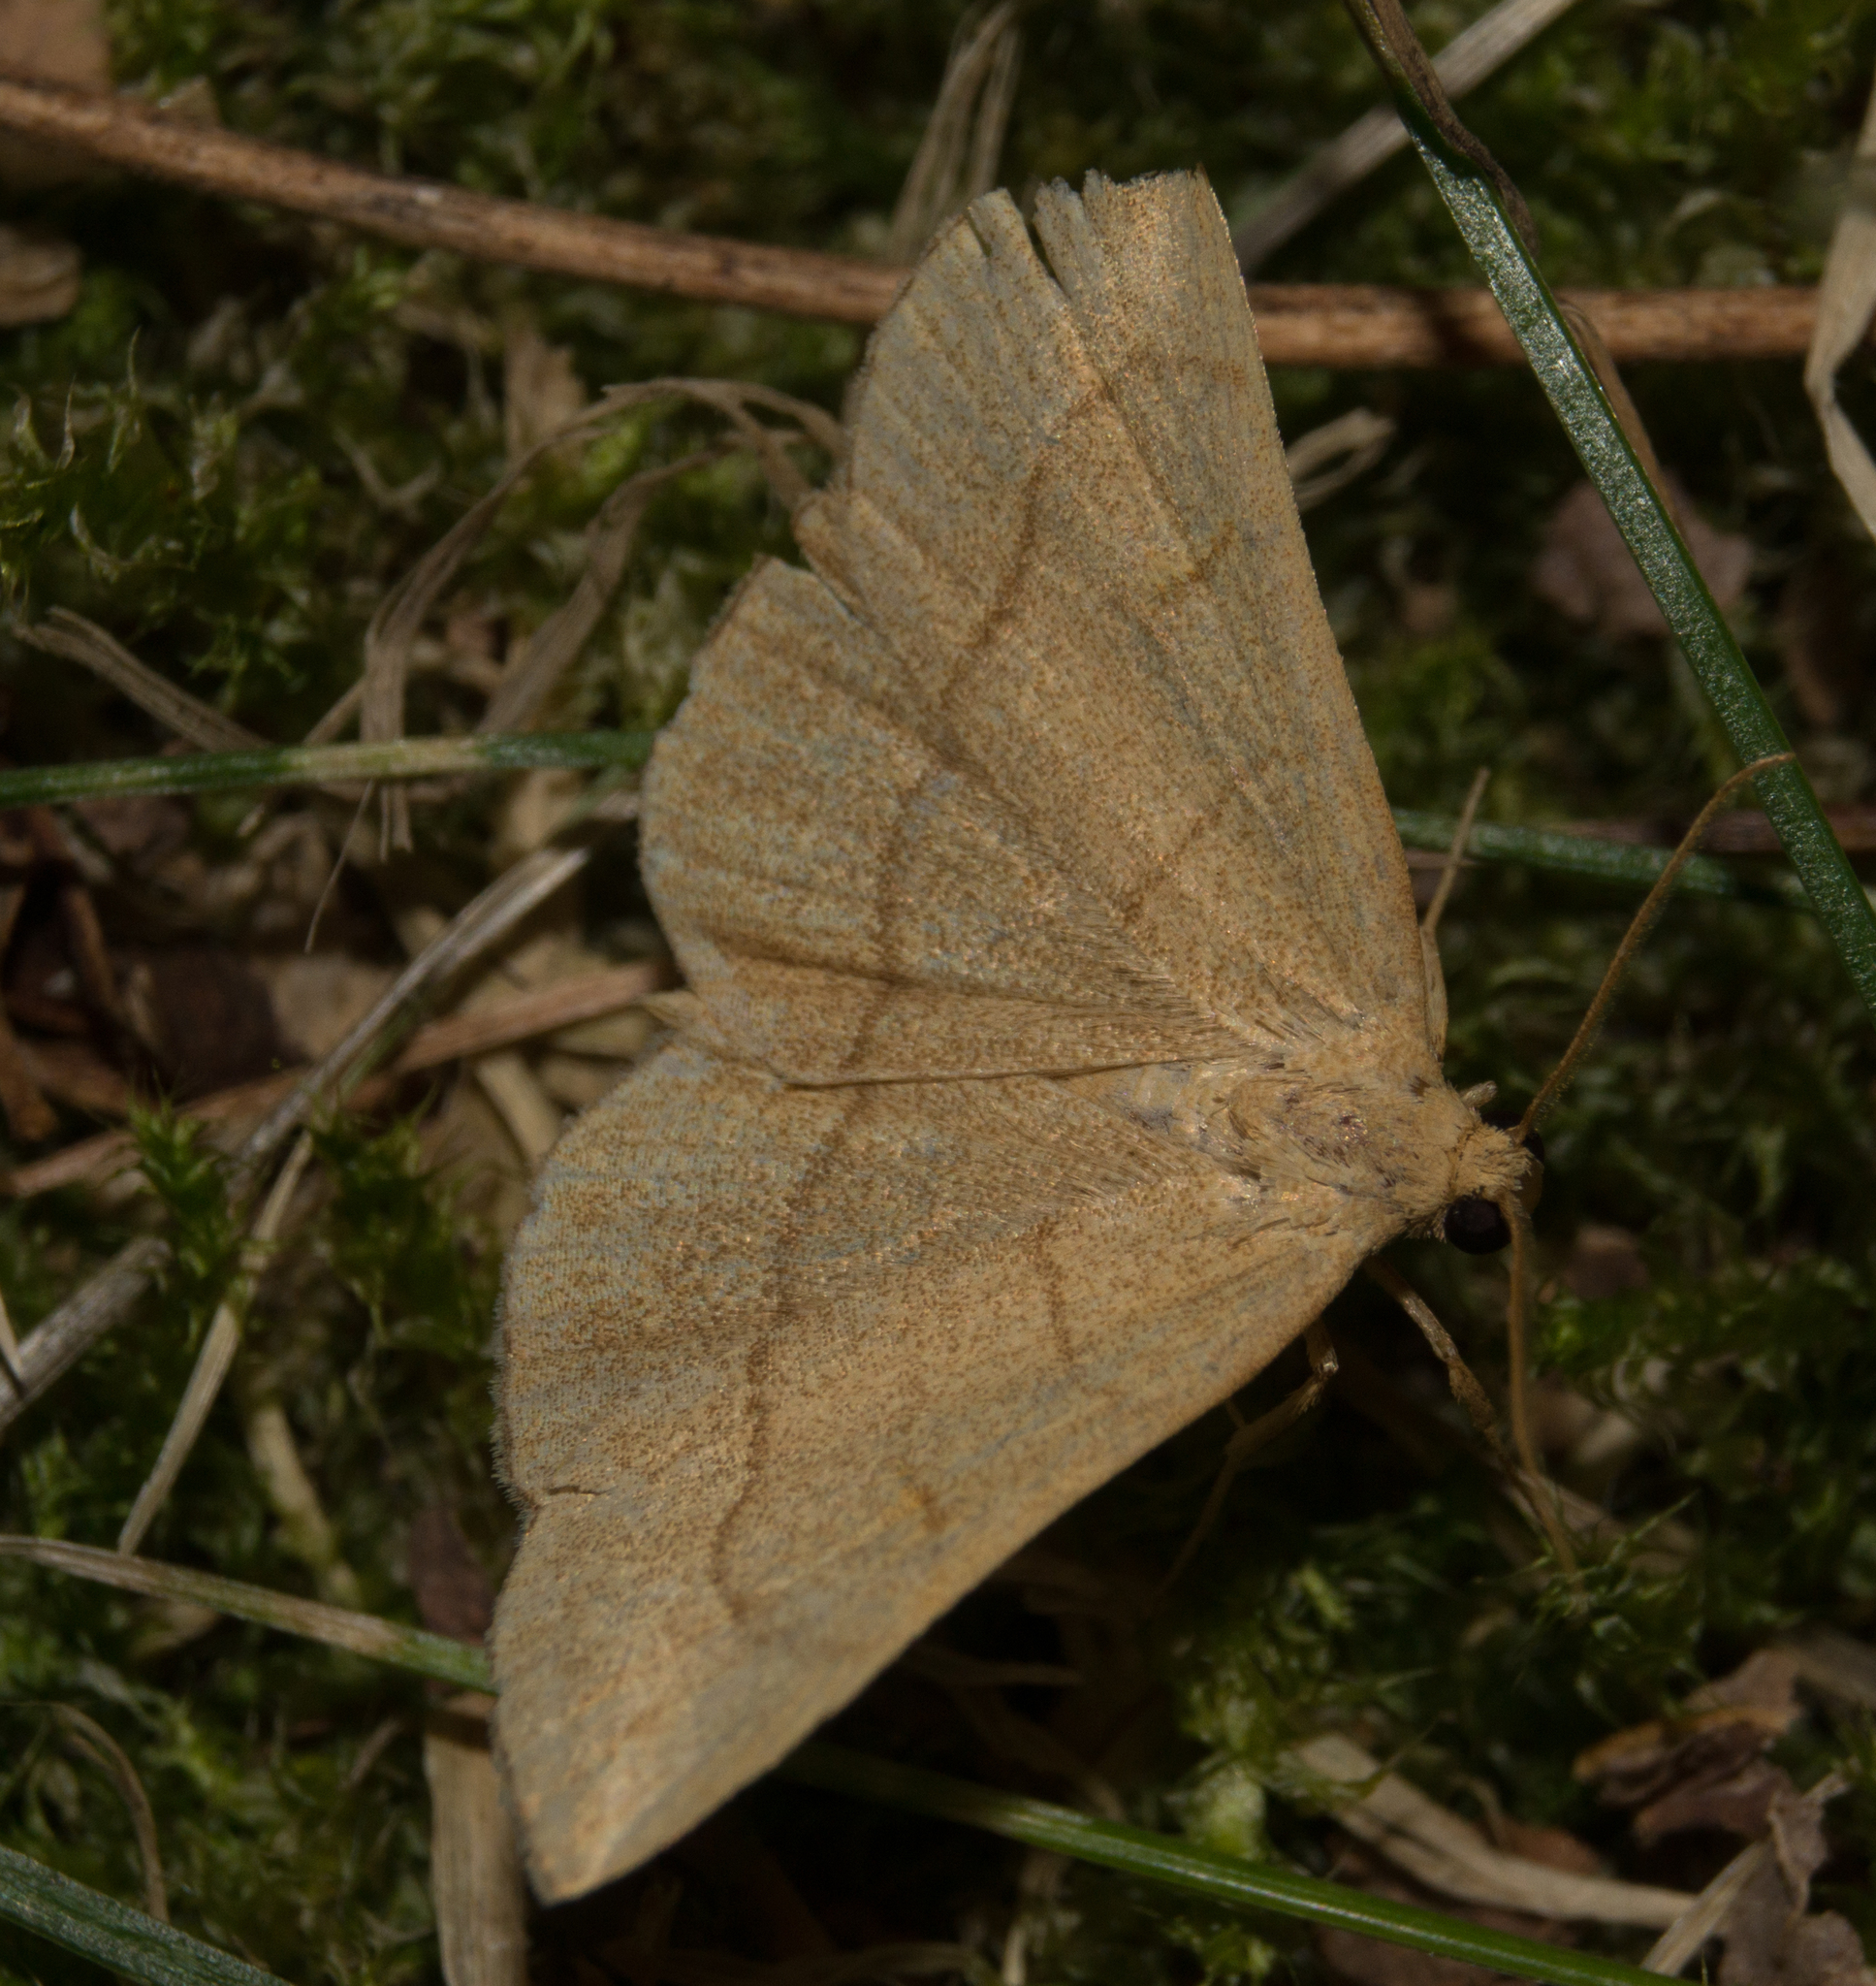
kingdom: Animalia
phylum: Arthropoda
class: Insecta
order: Lepidoptera
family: Erebidae
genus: Paracolax
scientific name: Paracolax tristalis
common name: Clay fan-foot
